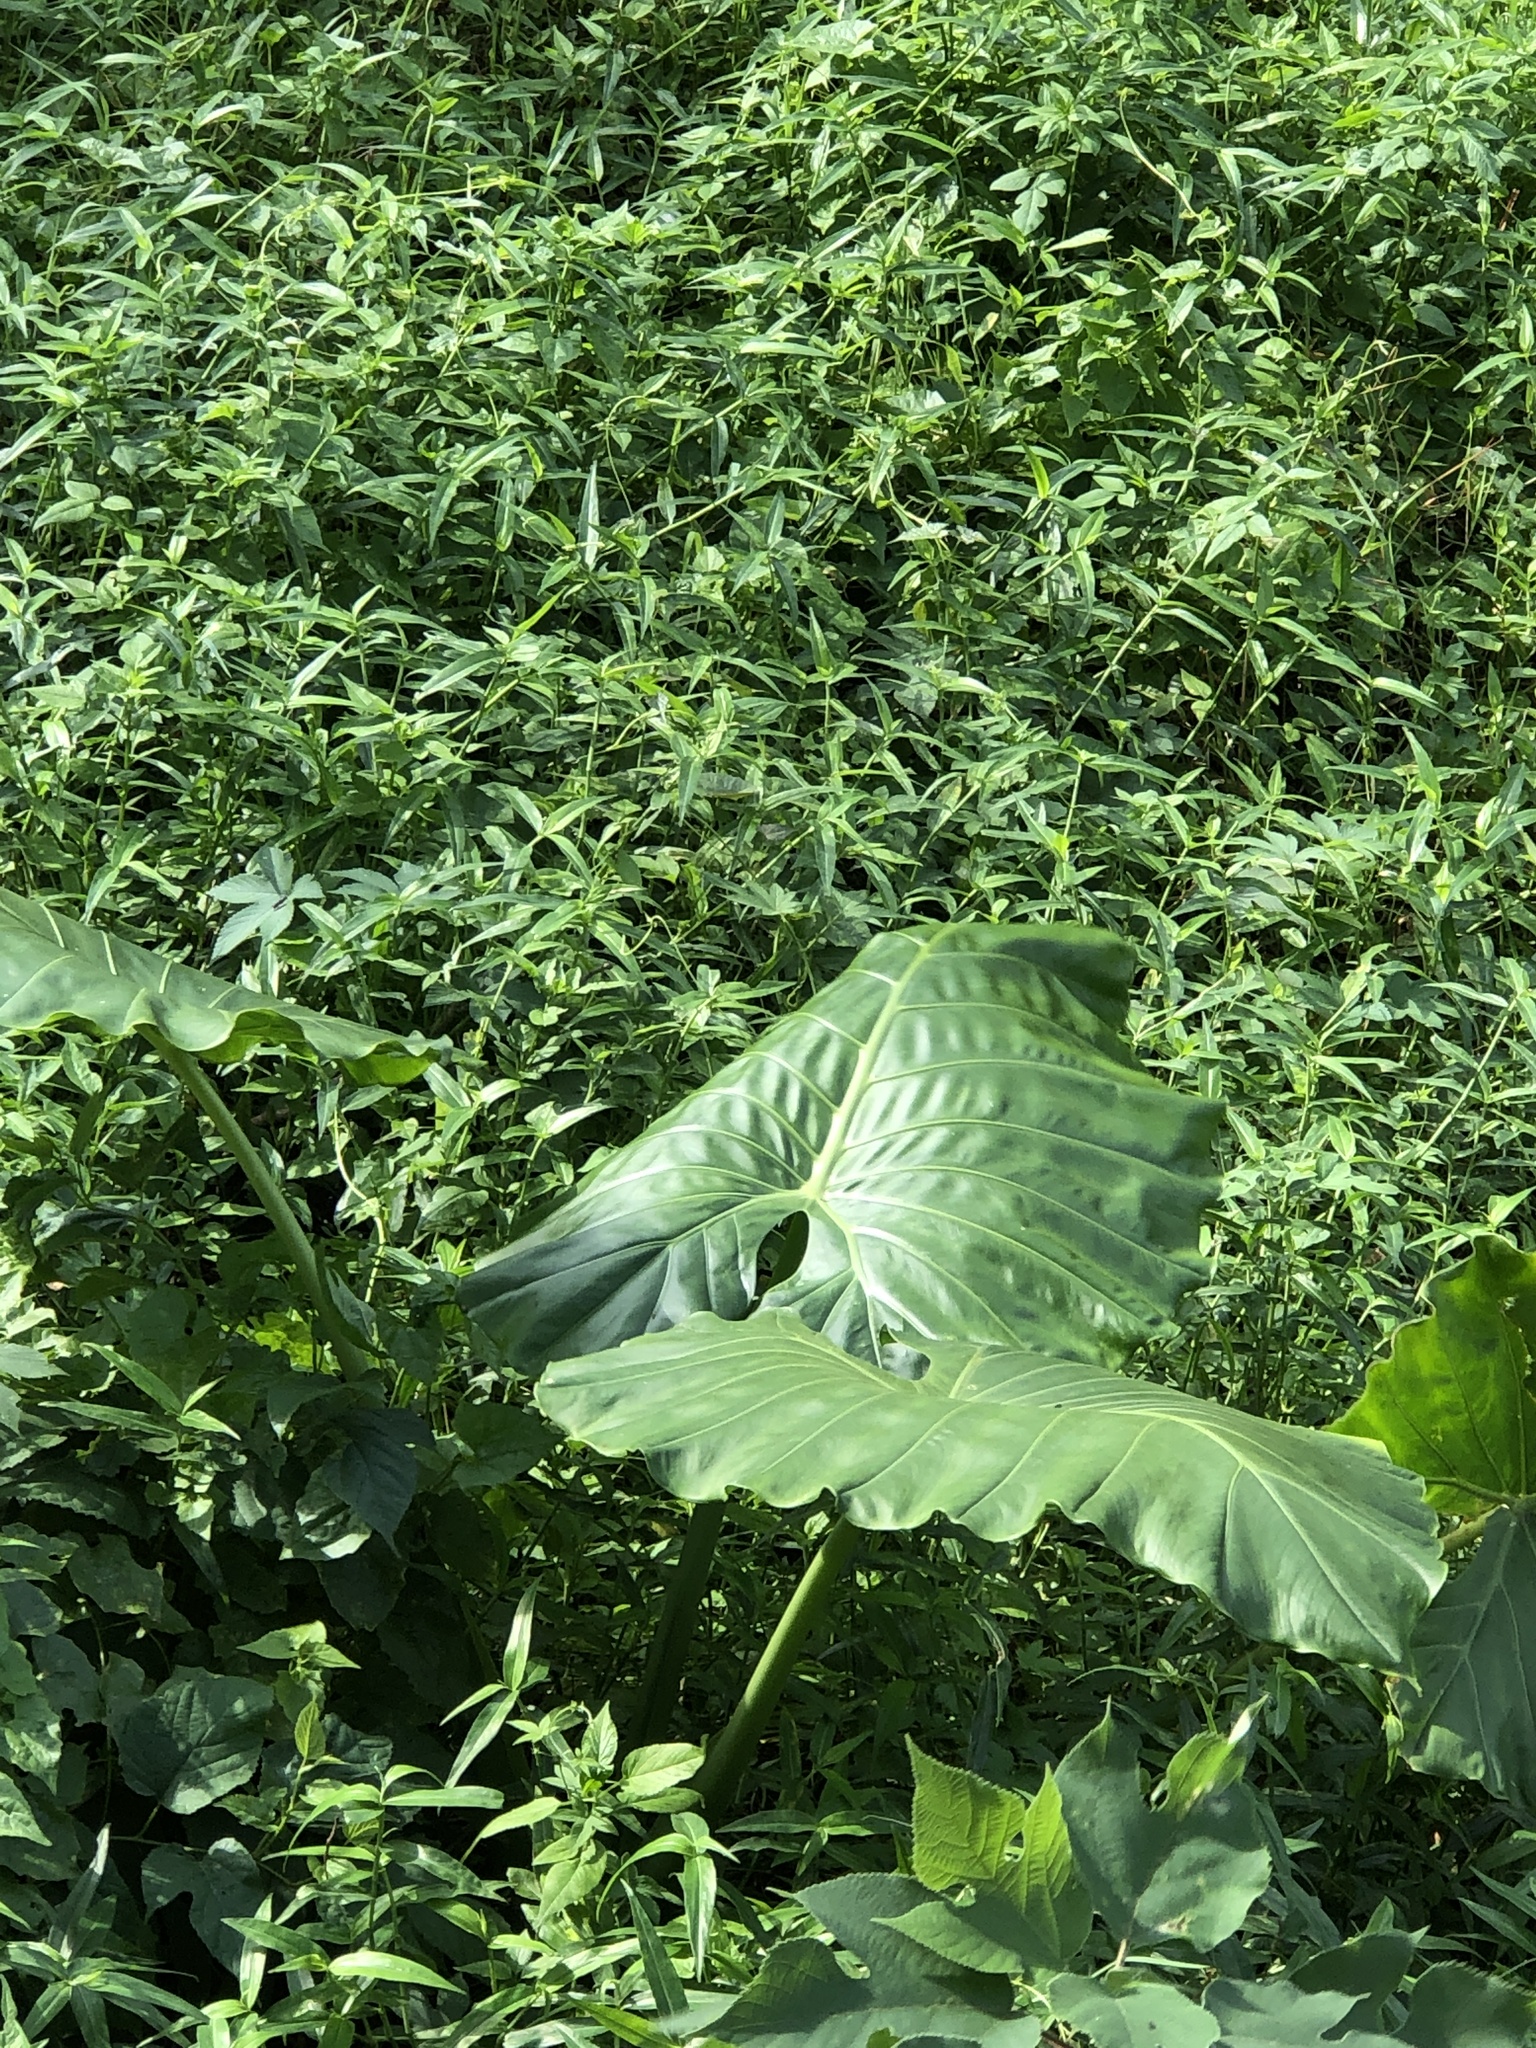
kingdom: Plantae
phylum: Tracheophyta
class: Liliopsida
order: Alismatales
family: Araceae
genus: Alocasia
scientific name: Alocasia odora
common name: Asian taro
